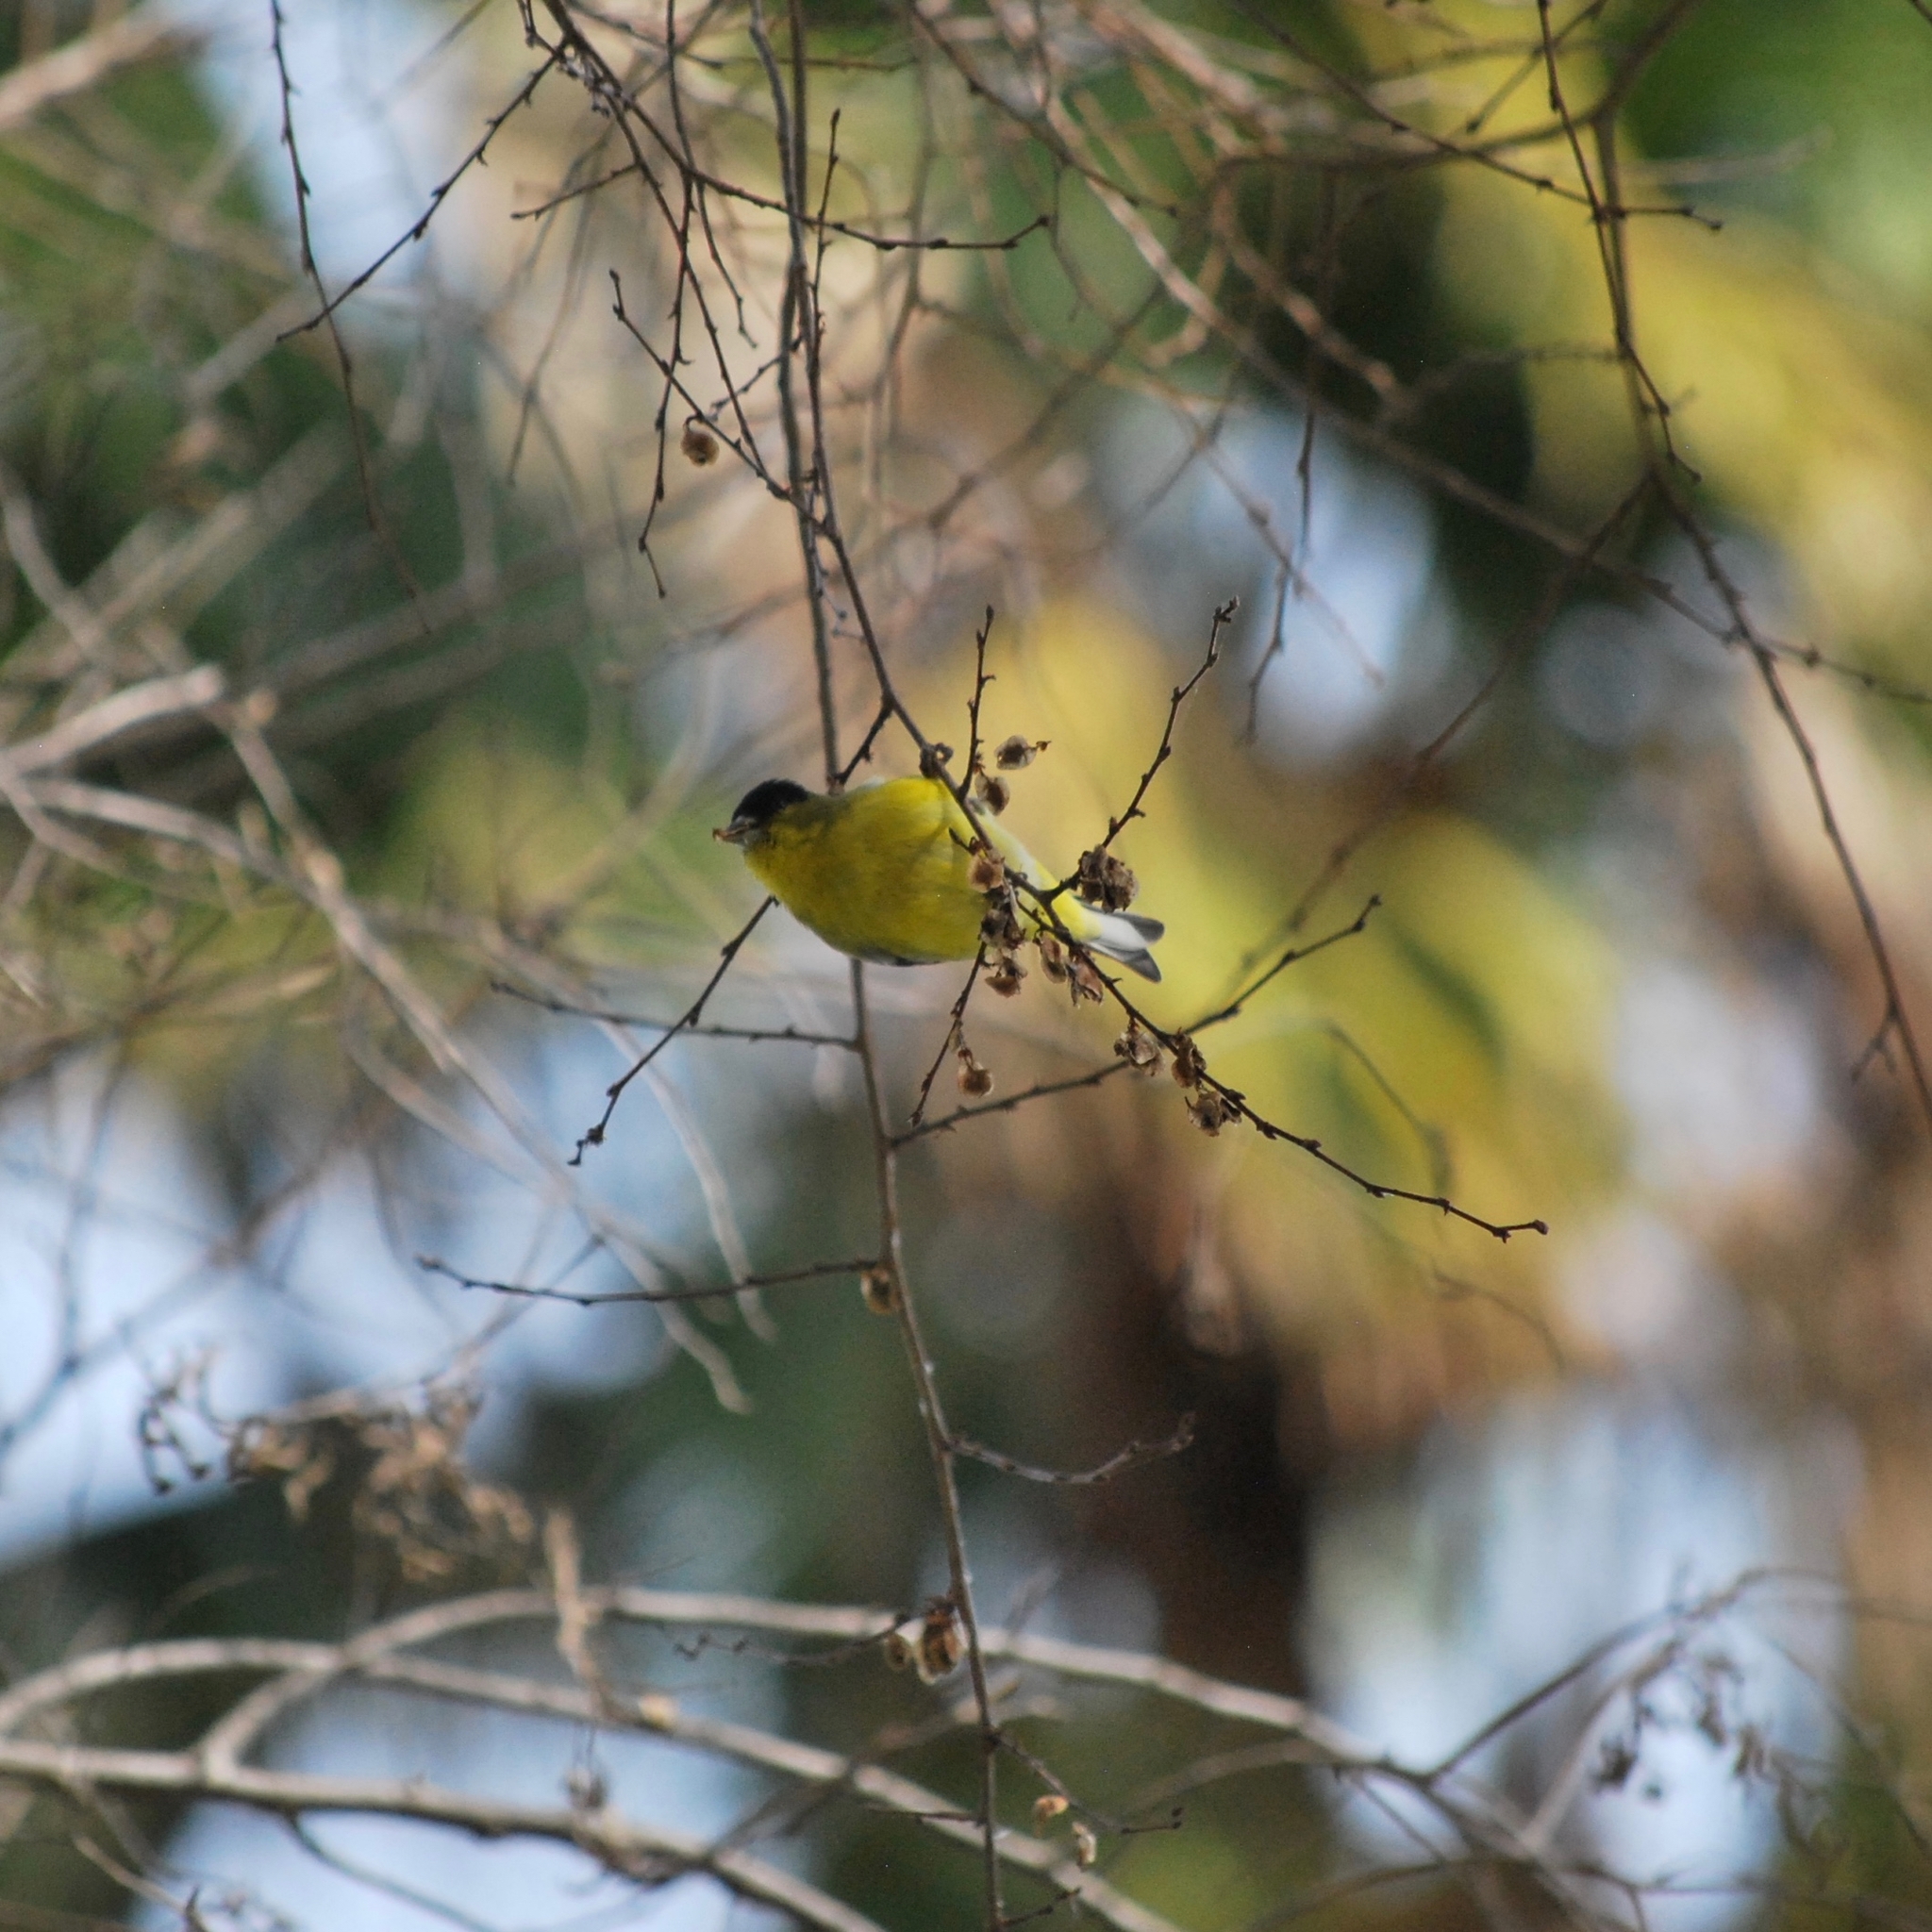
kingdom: Animalia
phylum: Chordata
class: Aves
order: Passeriformes
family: Fringillidae
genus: Spinus
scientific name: Spinus psaltria
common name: Lesser goldfinch
